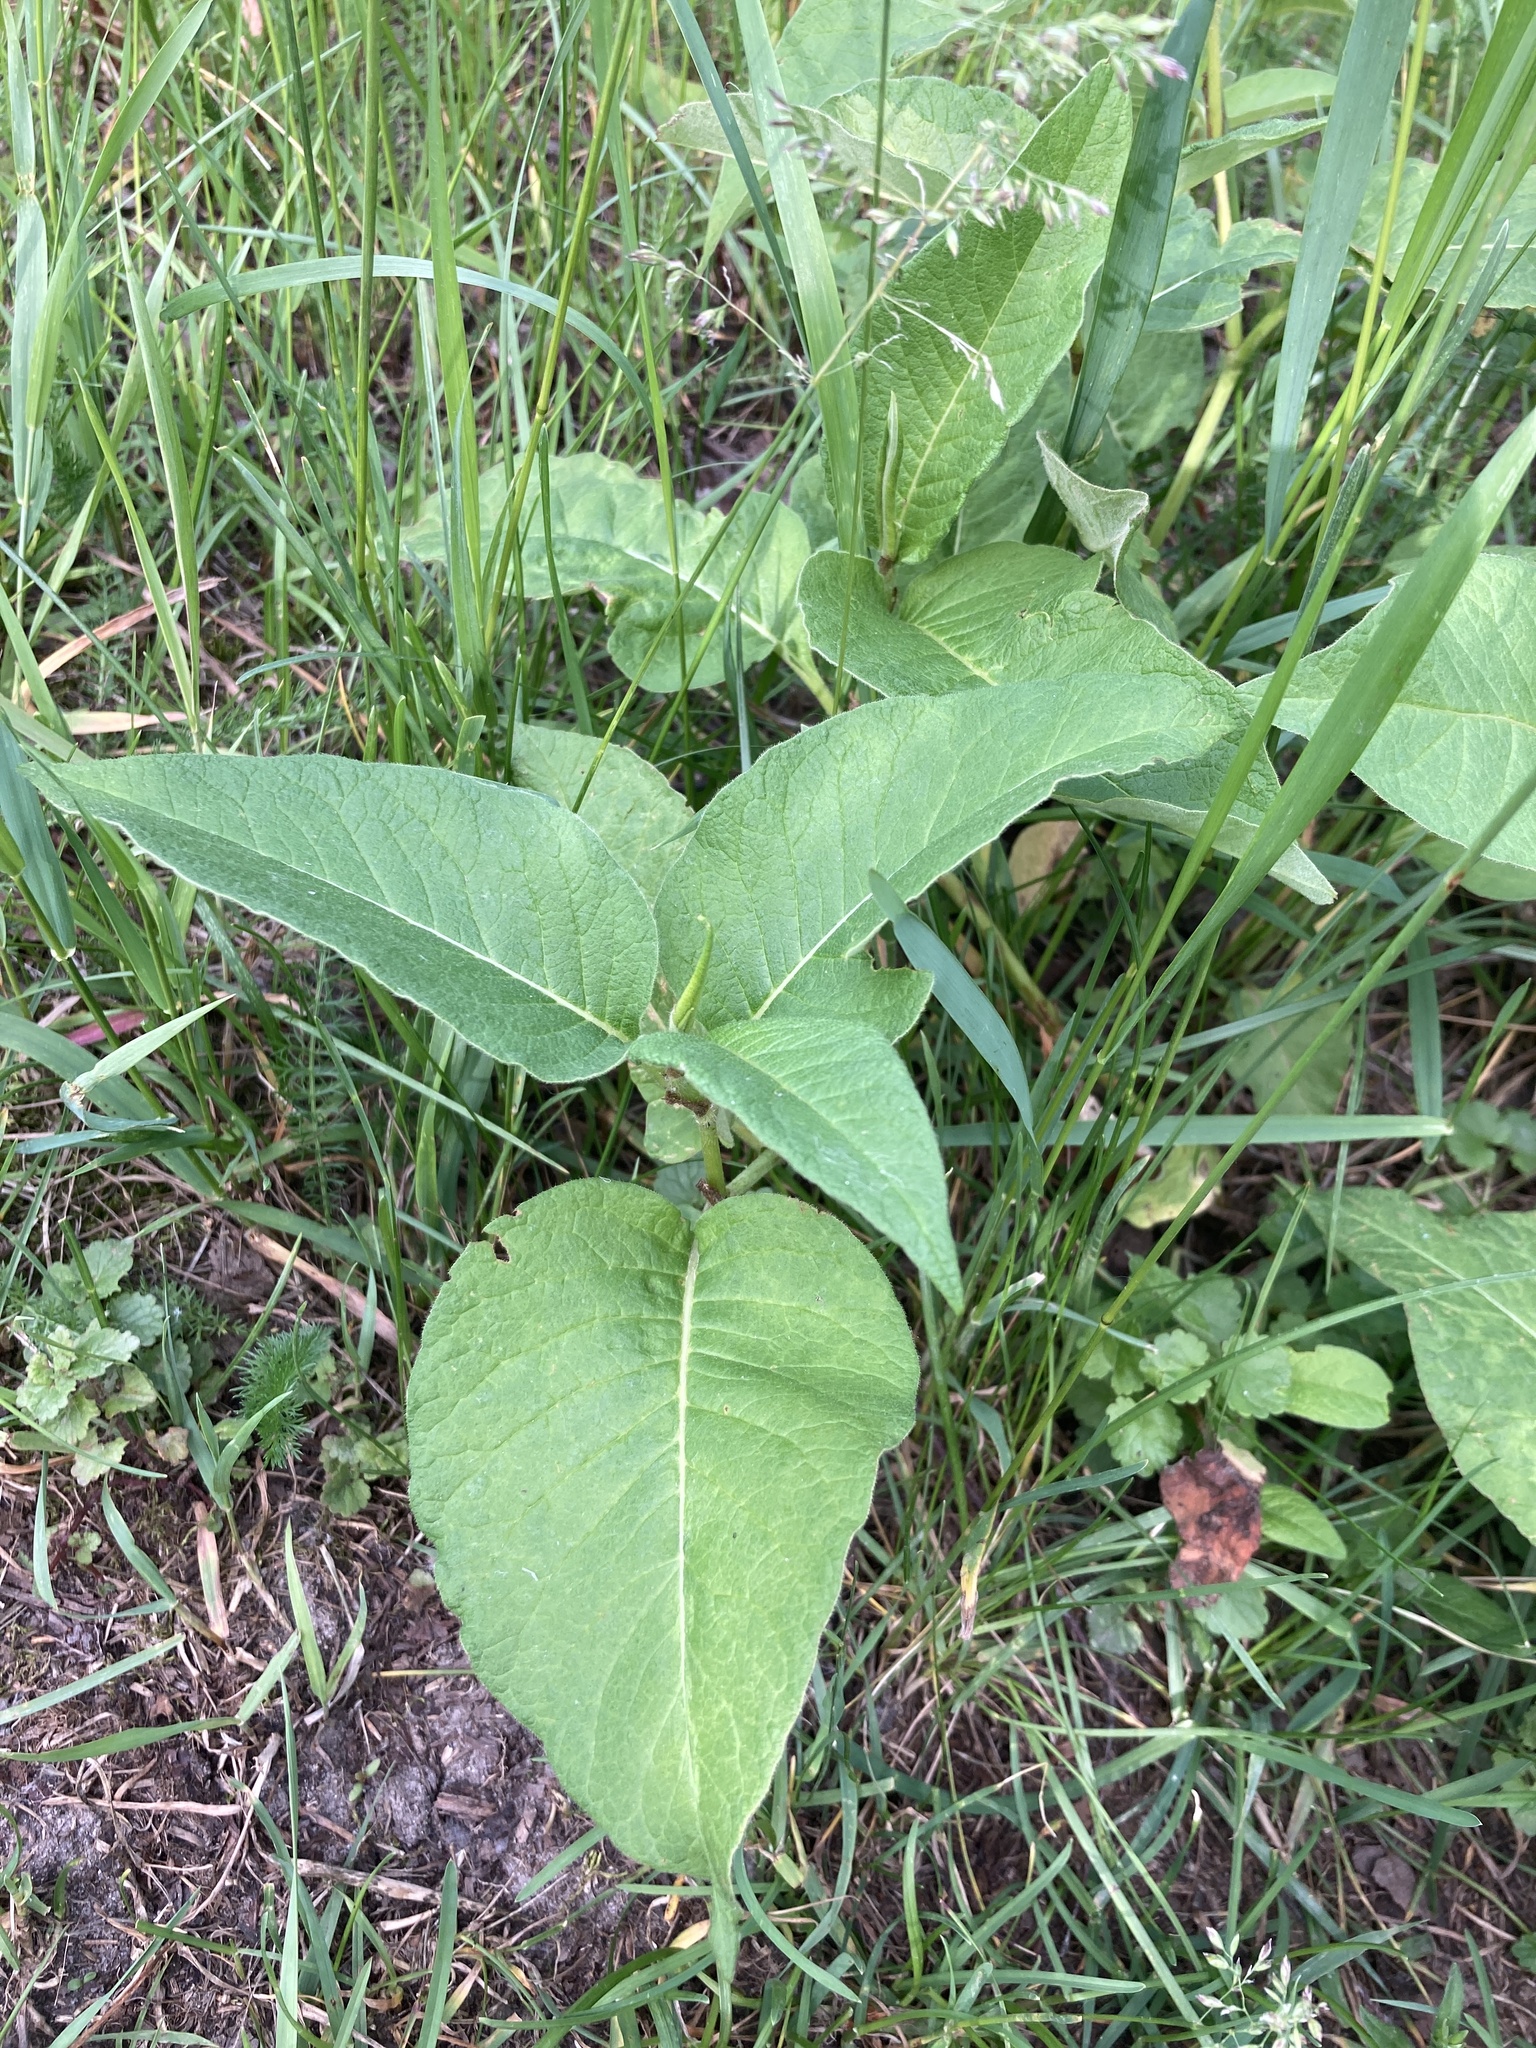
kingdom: Plantae
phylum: Tracheophyta
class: Magnoliopsida
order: Caryophyllales
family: Polygonaceae
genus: Koenigia
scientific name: Koenigia weyrichii
